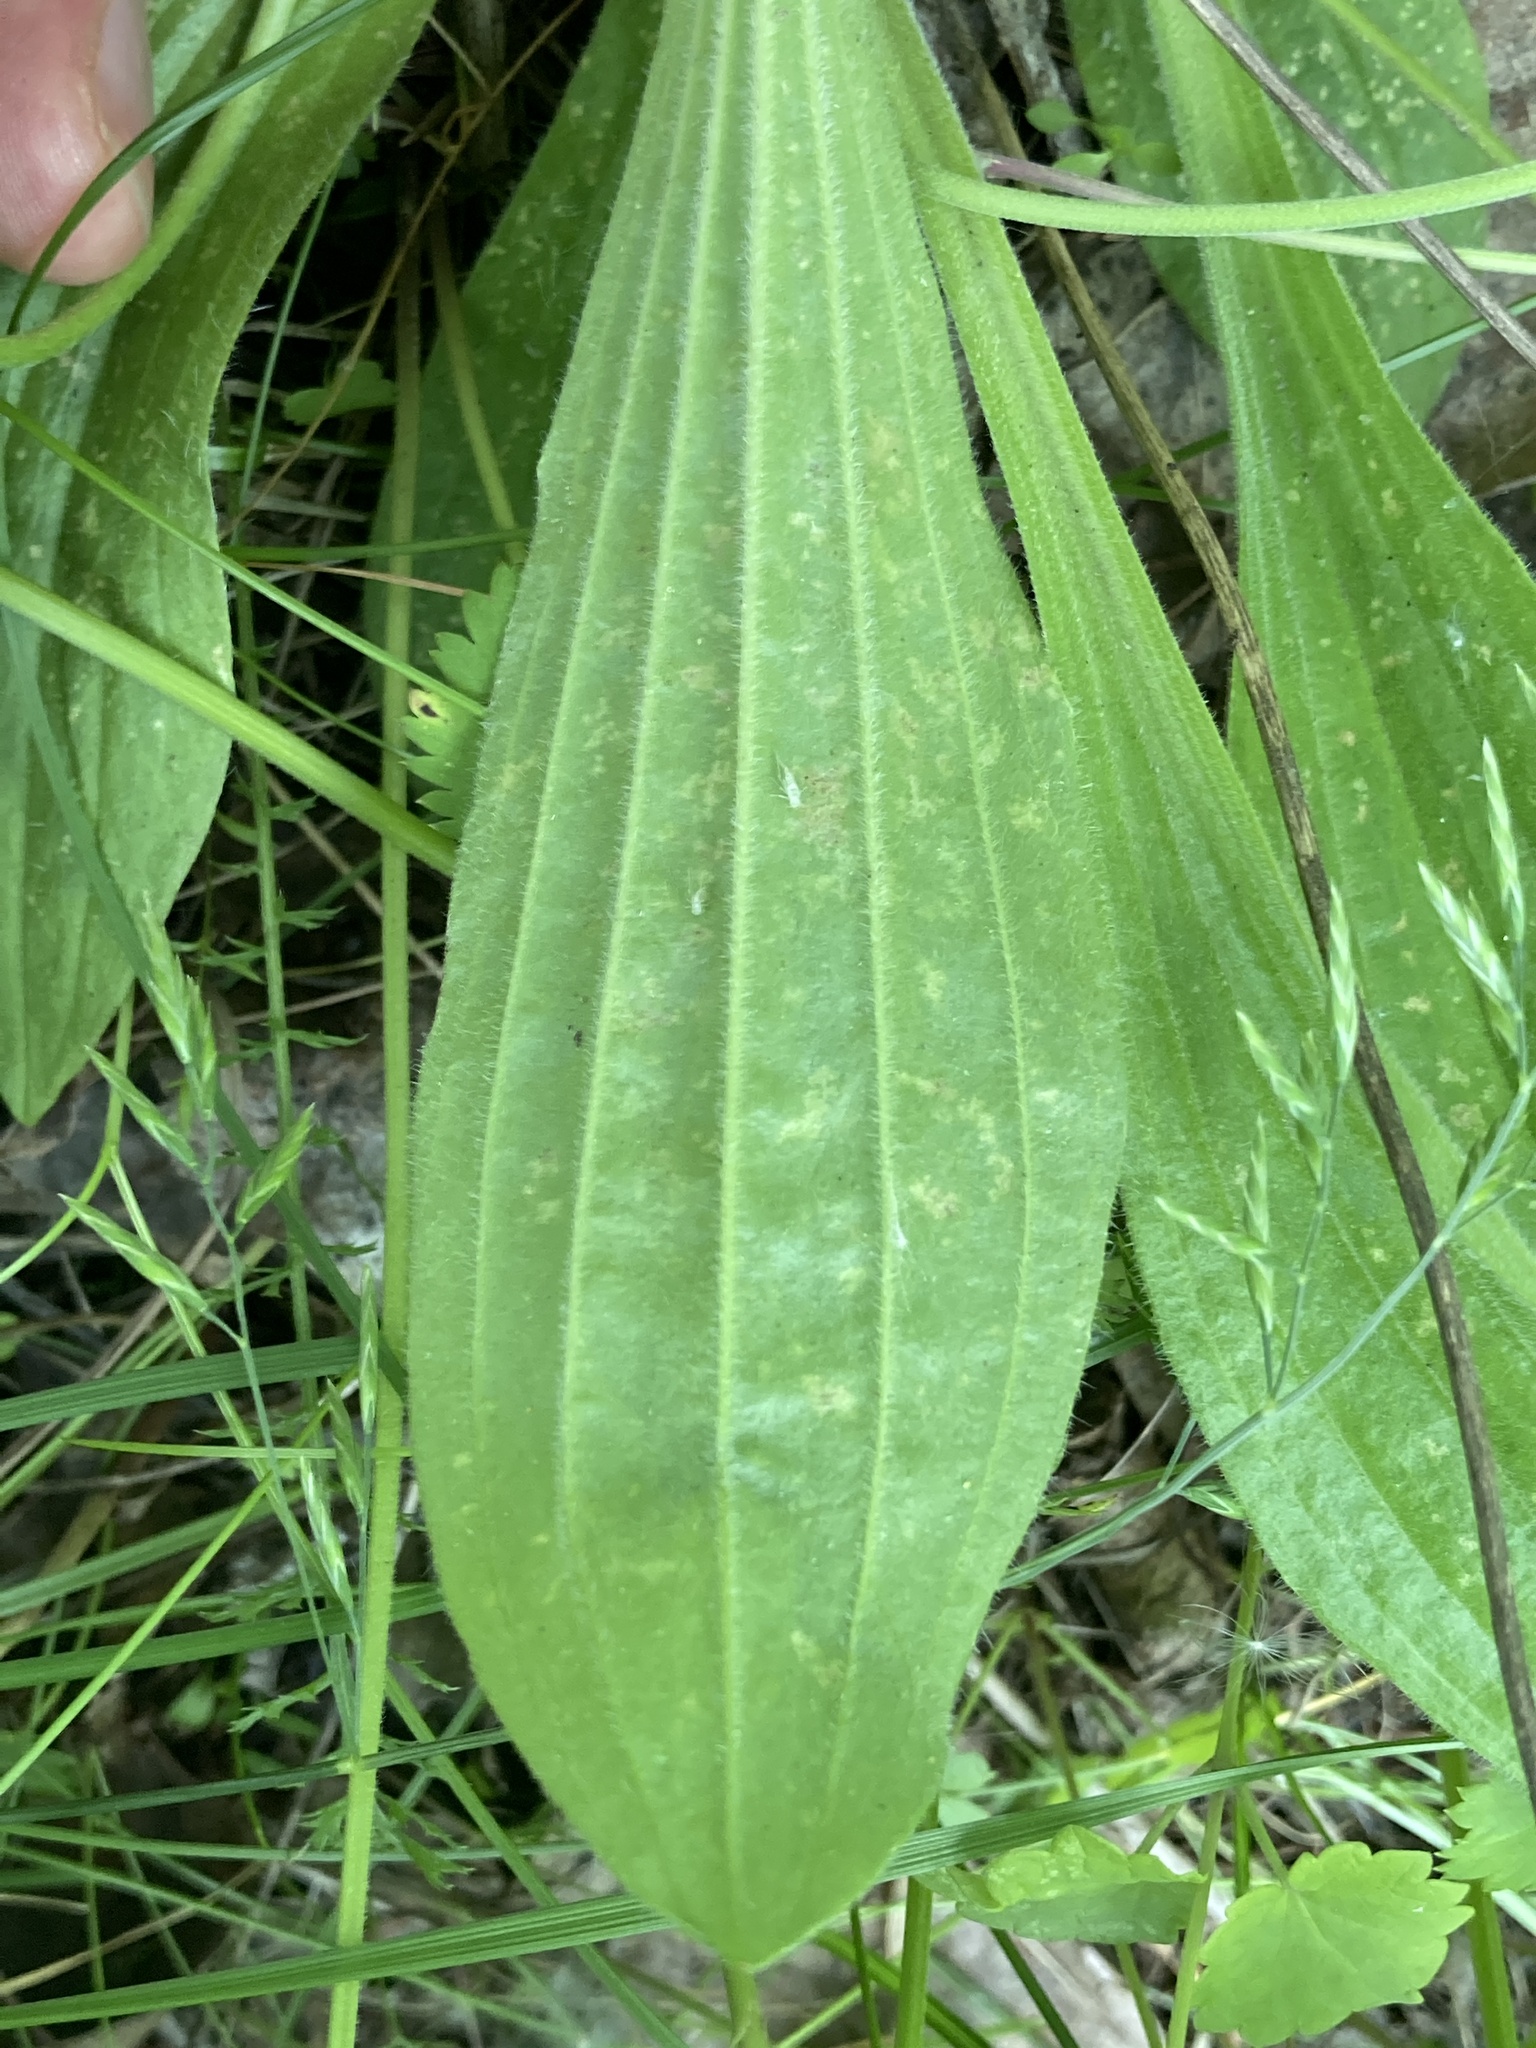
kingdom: Plantae
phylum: Tracheophyta
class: Magnoliopsida
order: Lamiales
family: Plantaginaceae
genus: Plantago
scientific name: Plantago media
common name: Hoary plantain
